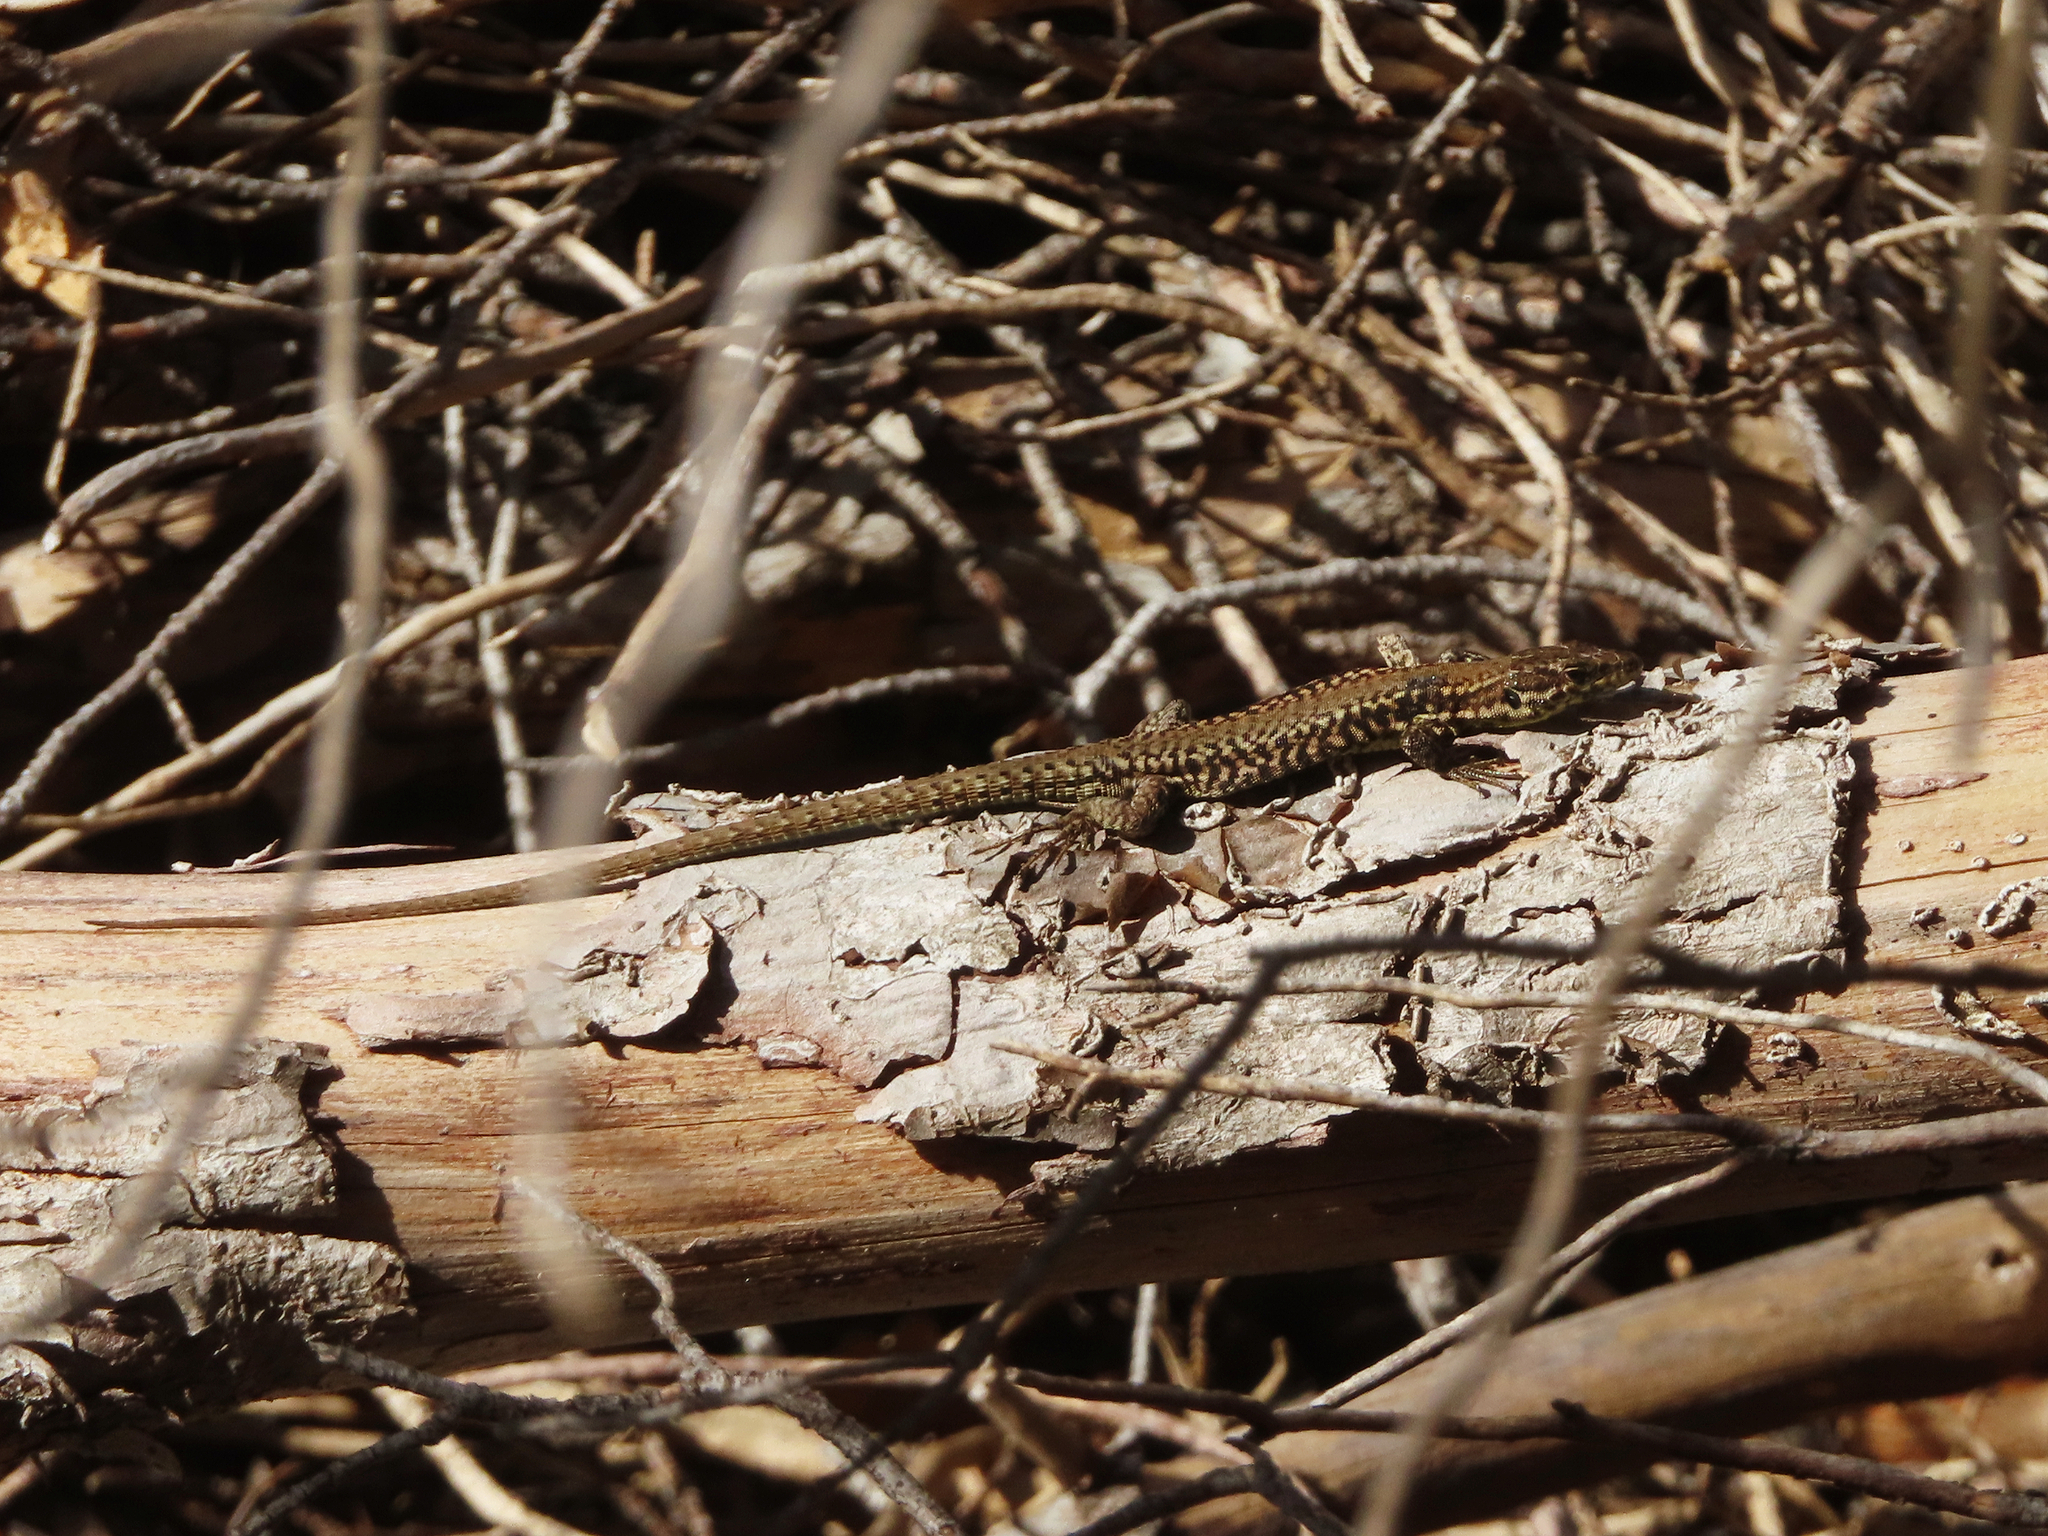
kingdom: Animalia
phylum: Chordata
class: Squamata
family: Lacertidae
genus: Podarcis
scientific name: Podarcis muralis
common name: Common wall lizard
